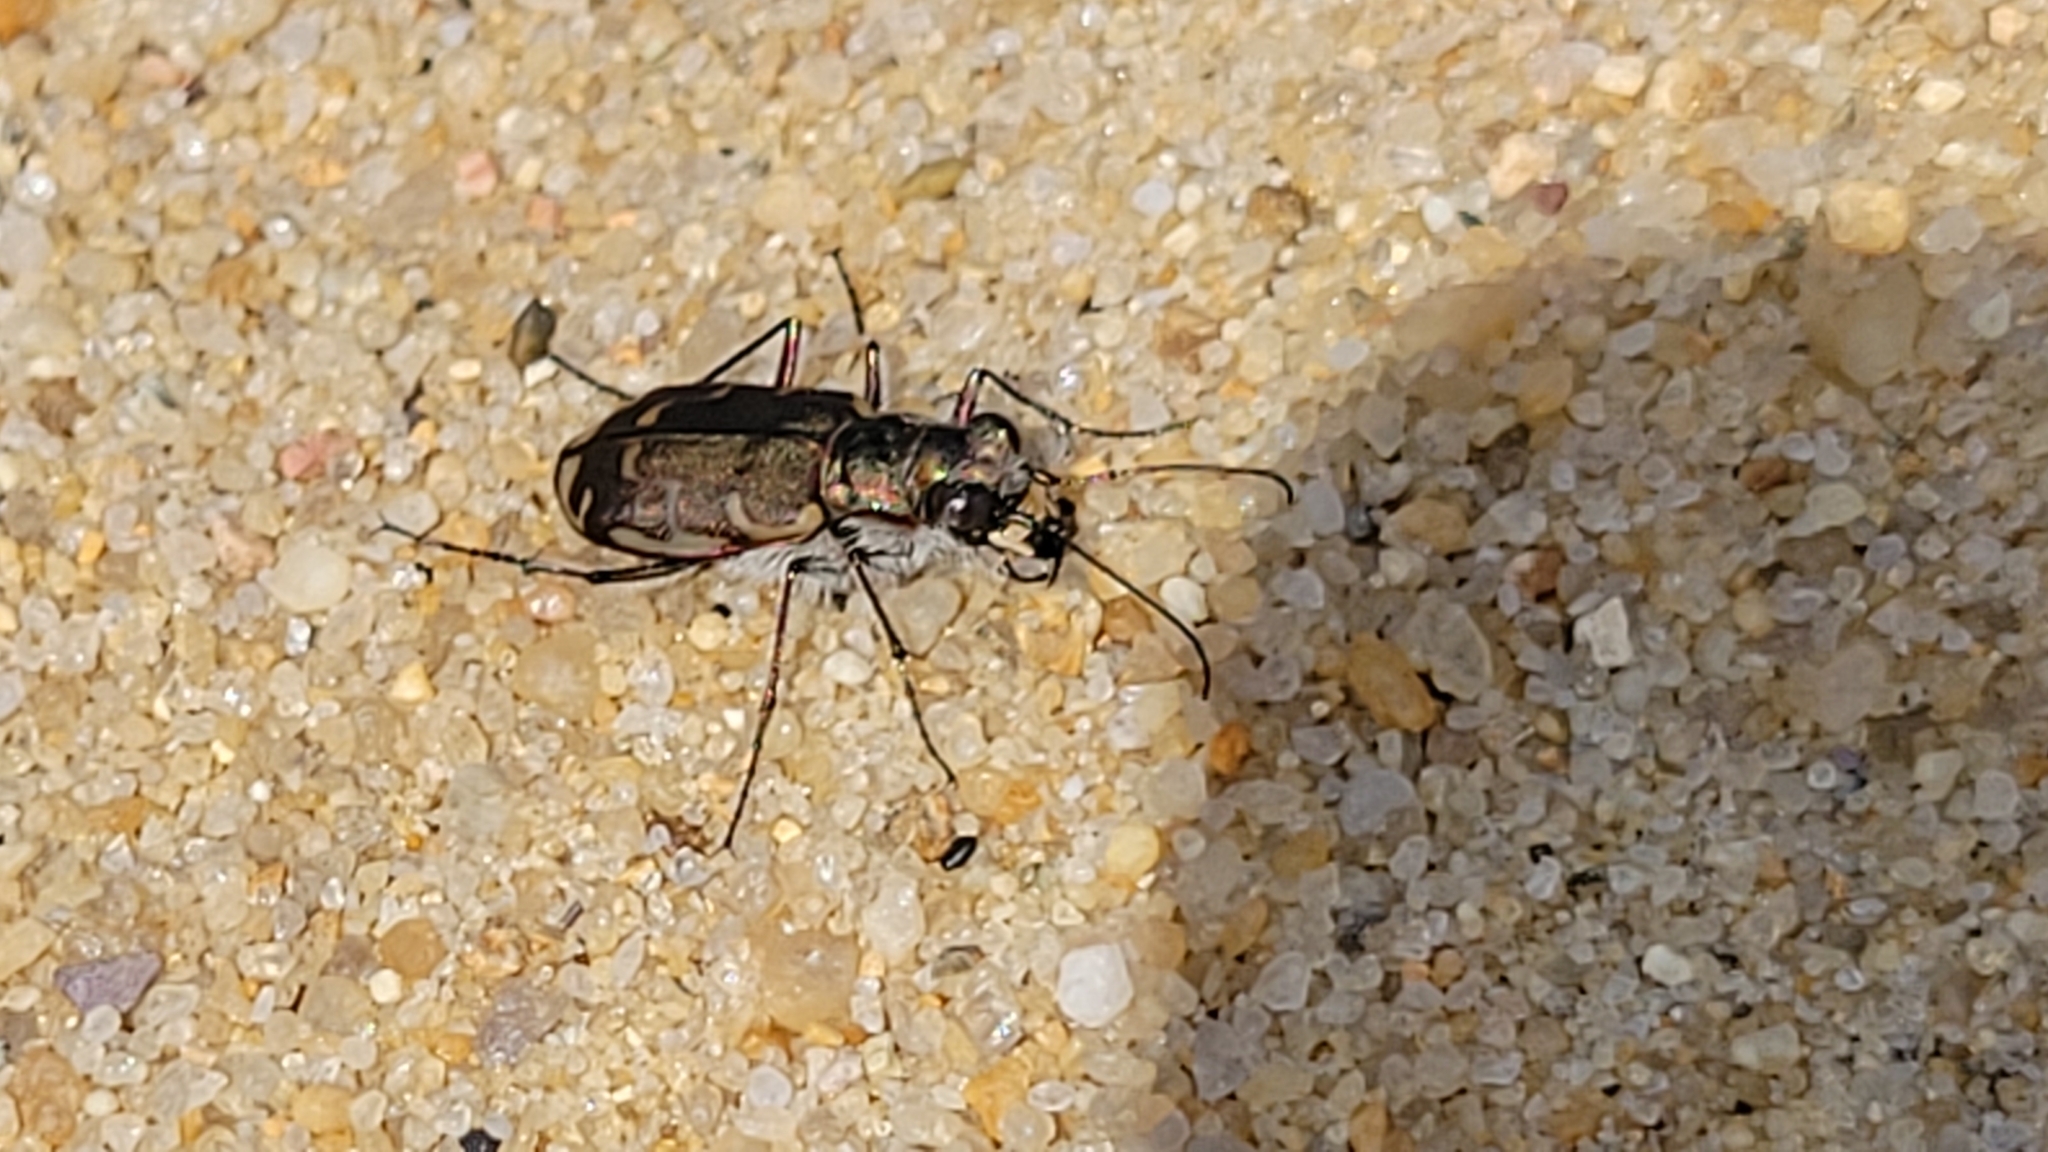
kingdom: Animalia
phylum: Arthropoda
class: Insecta
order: Coleoptera
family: Carabidae
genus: Cicindela
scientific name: Cicindela repanda
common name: Bronzed tiger beetle
